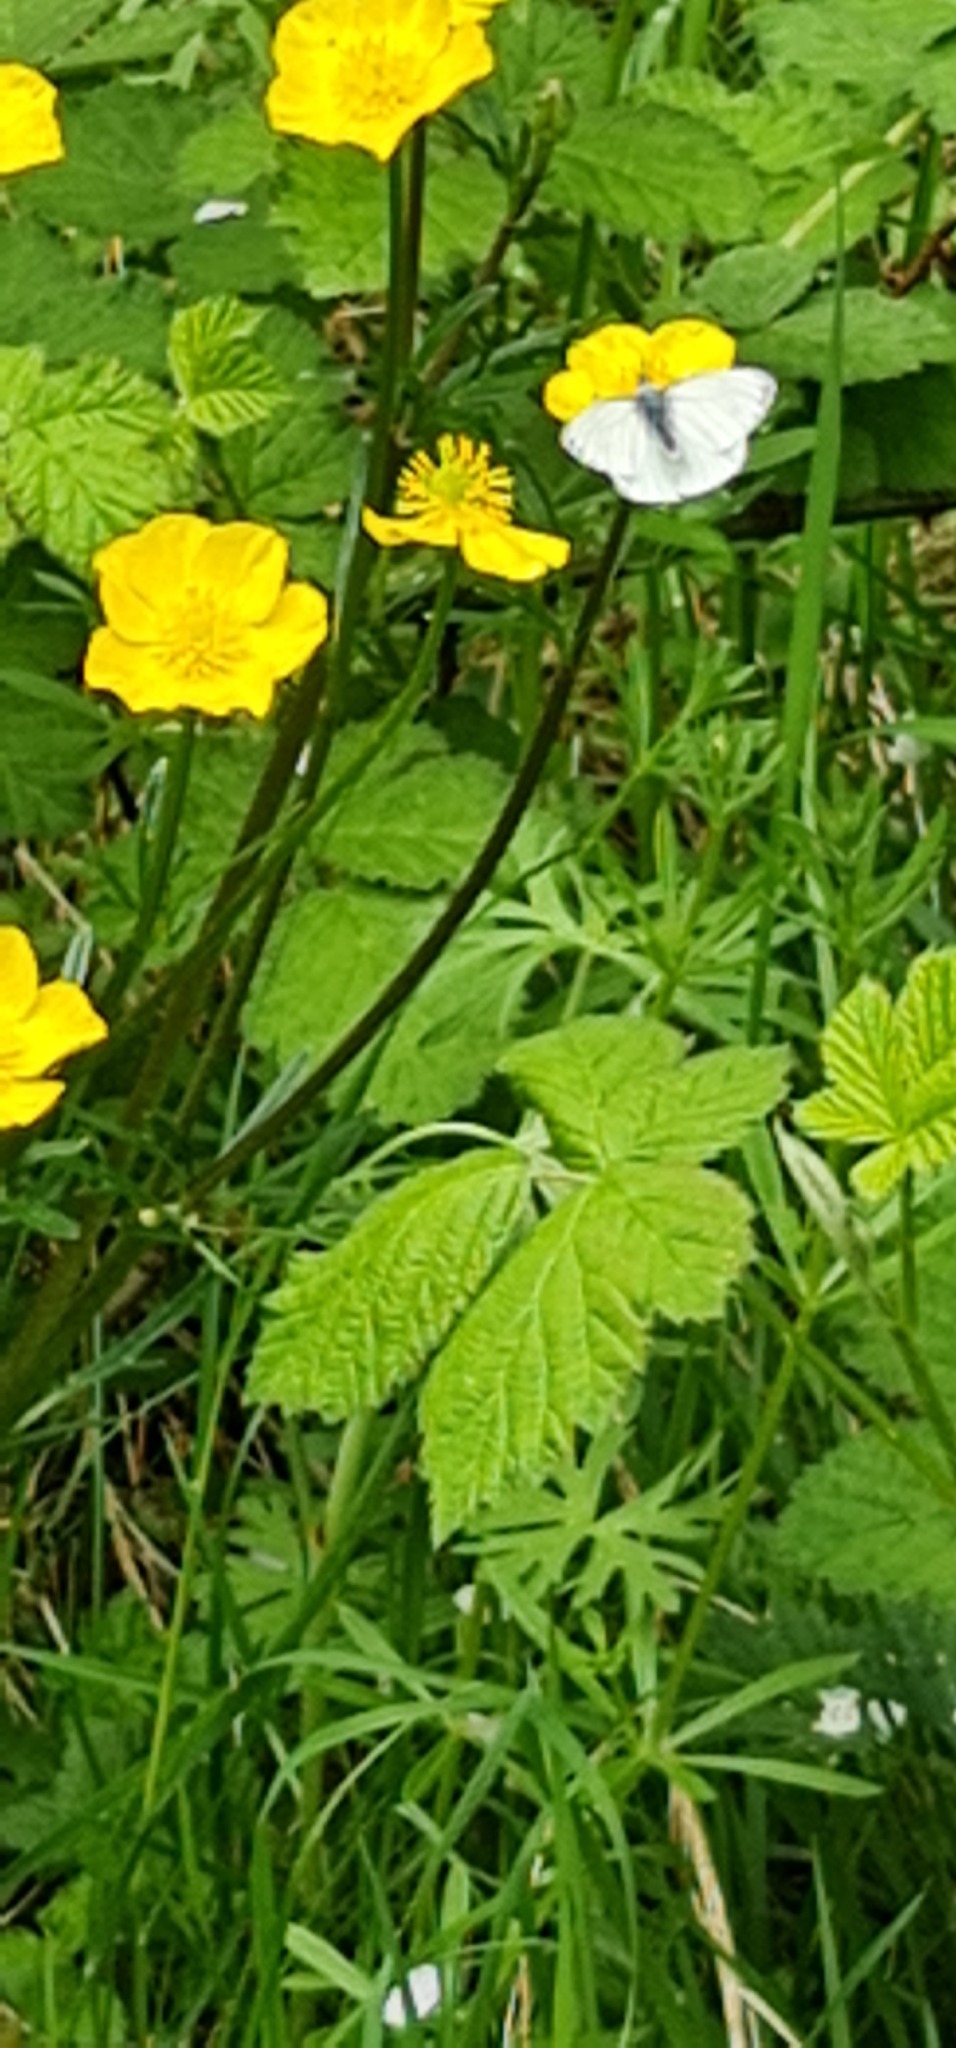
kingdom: Animalia
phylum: Arthropoda
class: Insecta
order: Lepidoptera
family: Pieridae
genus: Pieris
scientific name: Pieris napi
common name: Green-veined white
